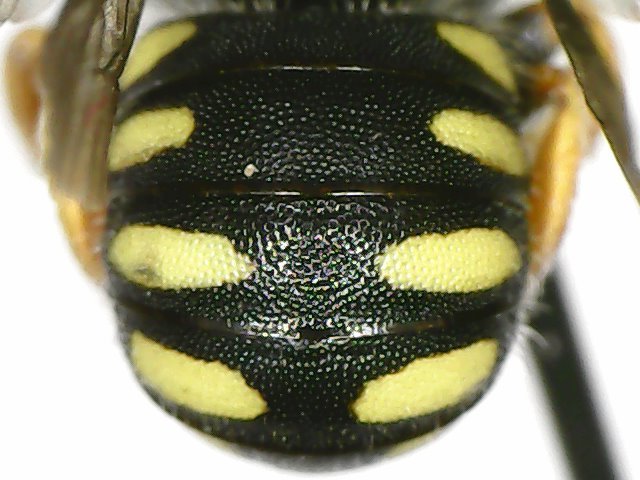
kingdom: Animalia
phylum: Arthropoda
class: Insecta
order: Hymenoptera
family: Megachilidae
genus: Pseudoanthidium
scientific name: Pseudoanthidium nanum
